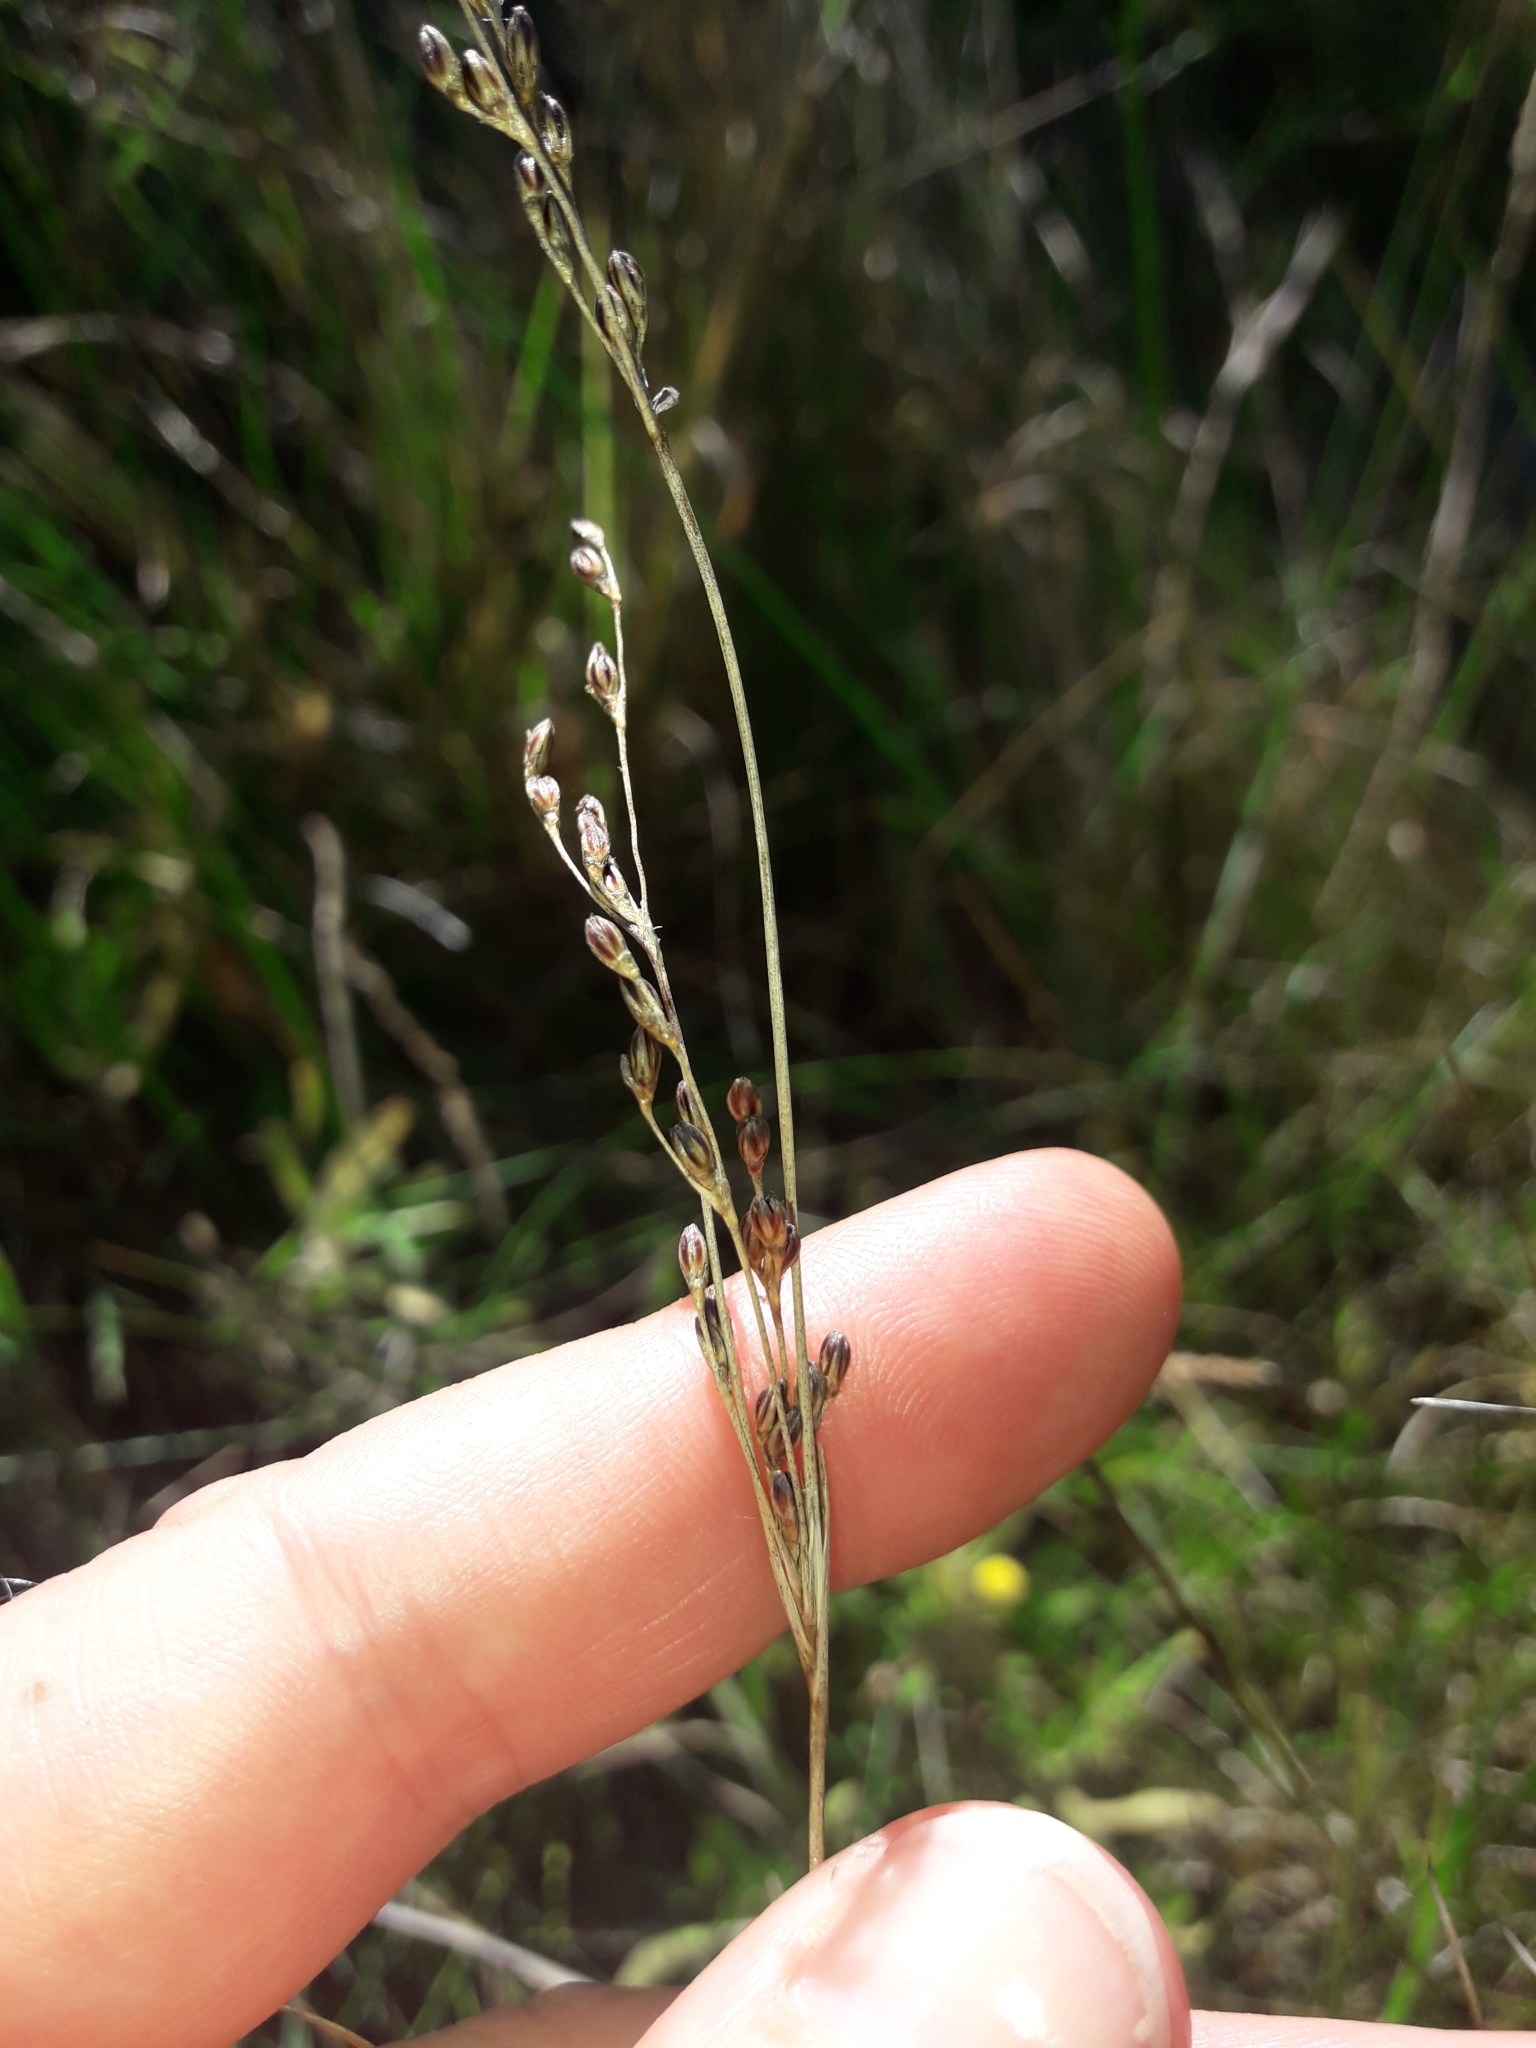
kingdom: Plantae
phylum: Tracheophyta
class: Liliopsida
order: Poales
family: Juncaceae
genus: Juncus
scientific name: Juncus gerardi
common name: Saltmarsh rush
